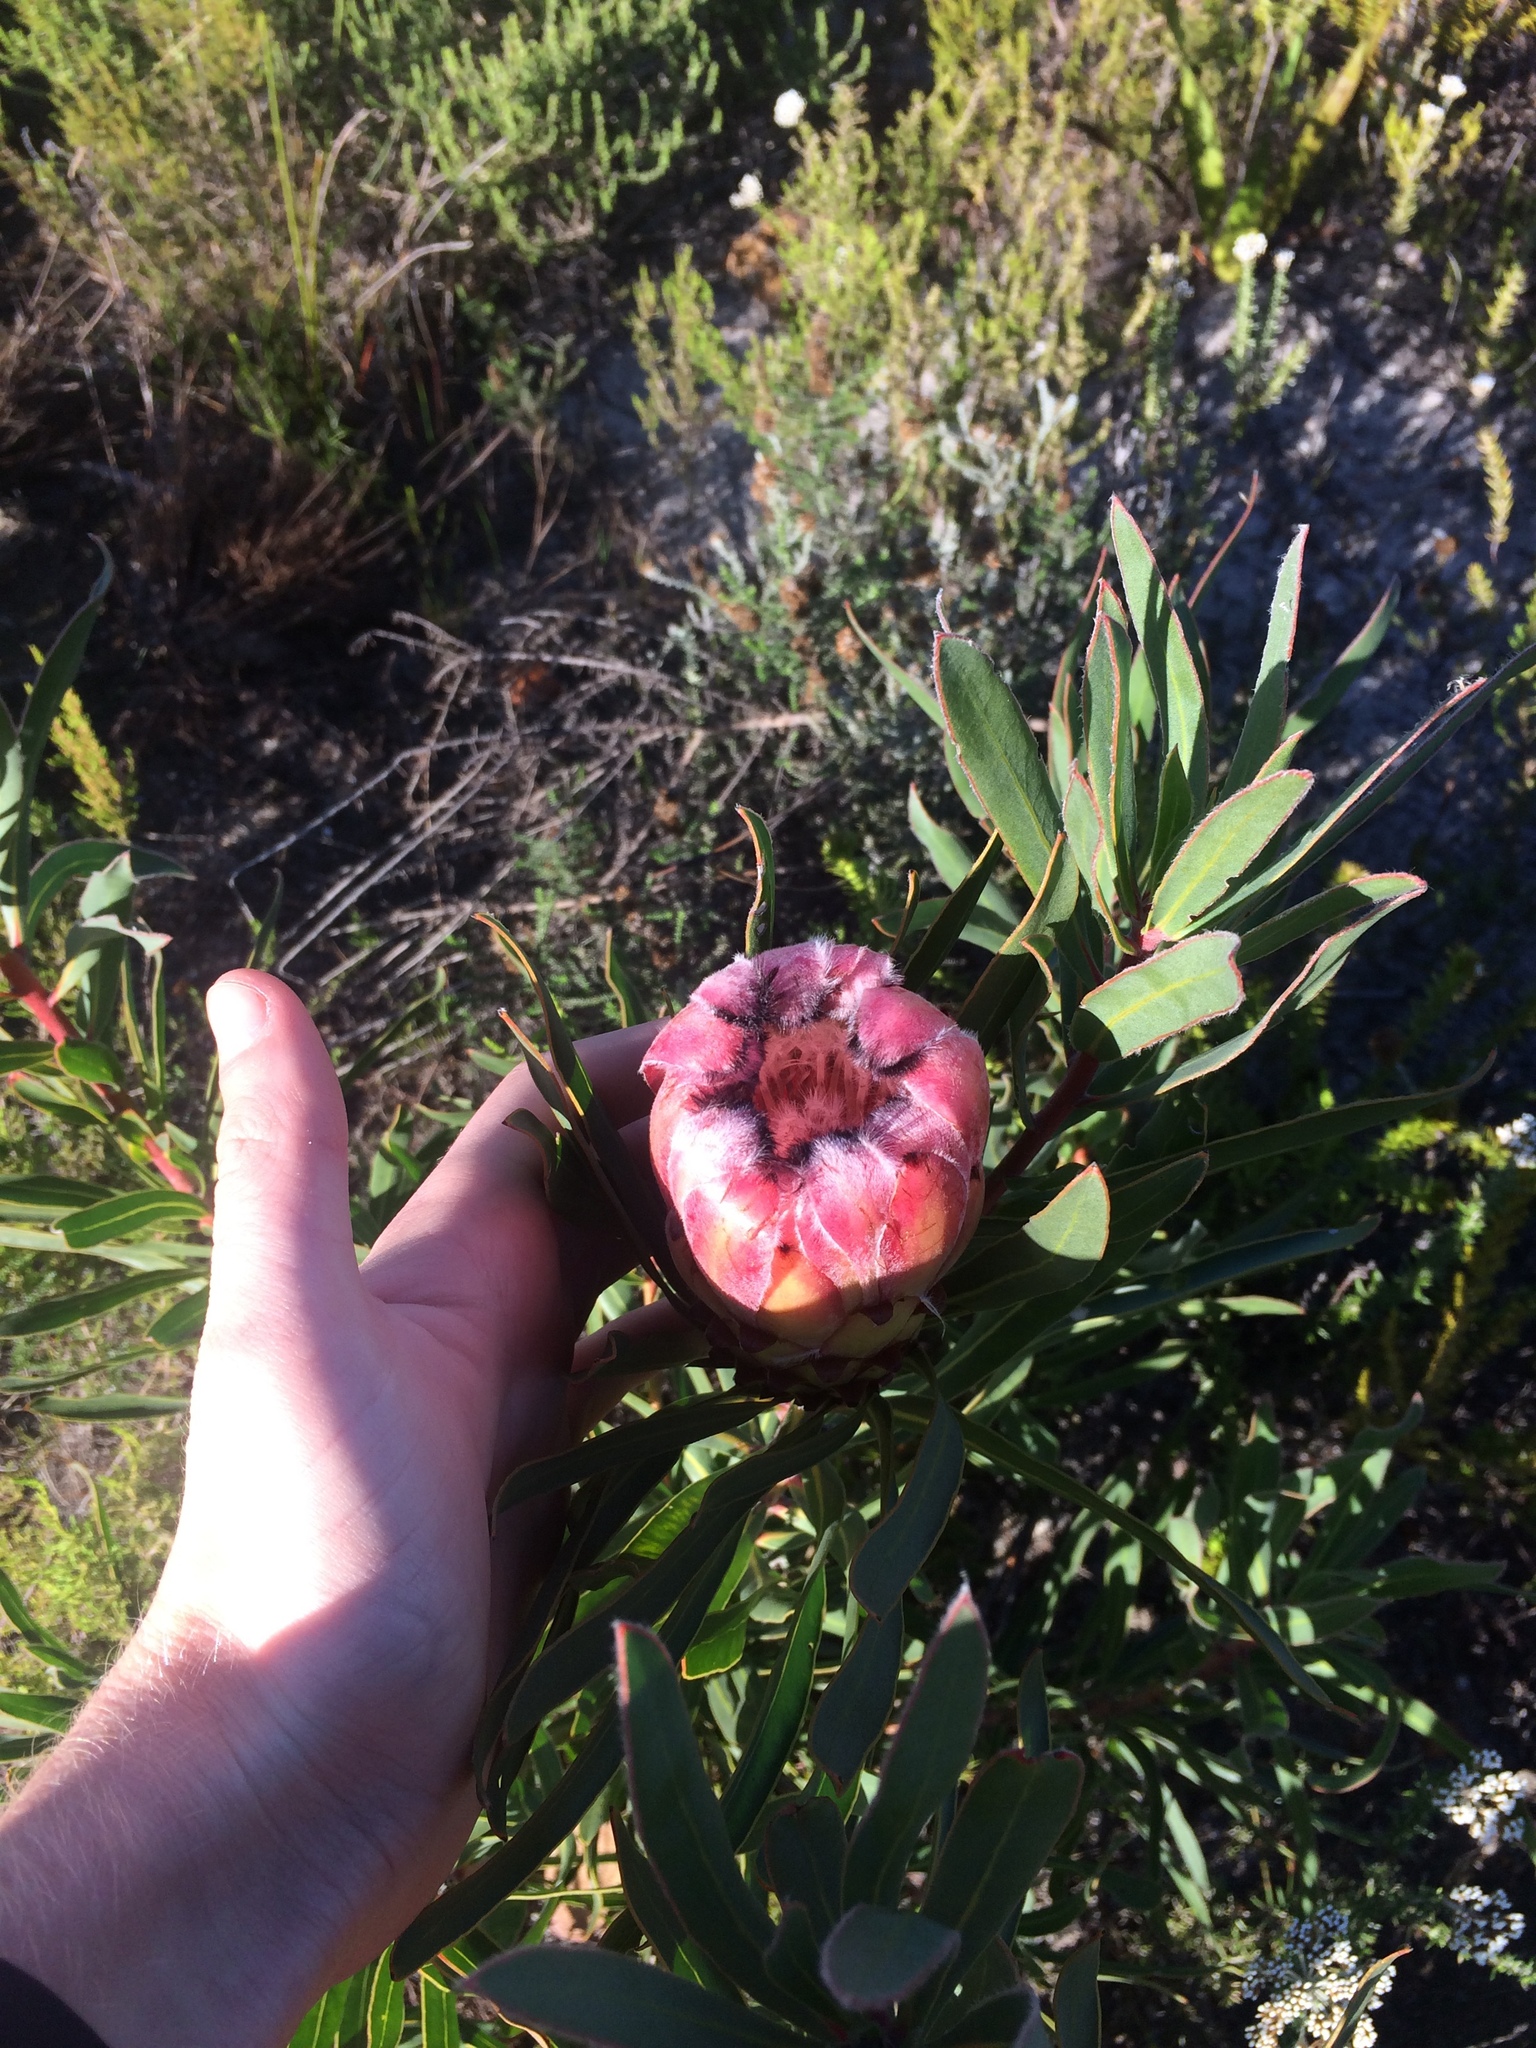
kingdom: Plantae
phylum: Tracheophyta
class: Magnoliopsida
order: Proteales
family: Proteaceae
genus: Protea
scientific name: Protea burchellii
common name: Burchell's sugarbush
